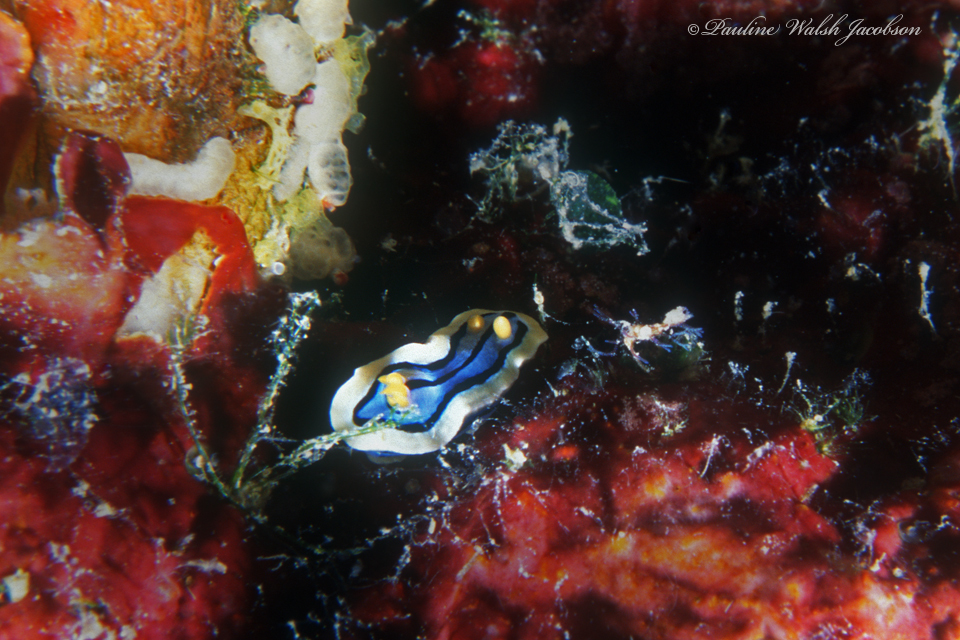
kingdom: Animalia
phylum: Mollusca
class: Gastropoda
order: Nudibranchia
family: Chromodorididae
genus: Chromodoris
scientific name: Chromodoris elisabethina
